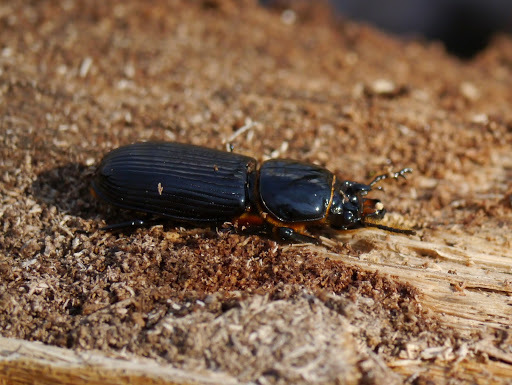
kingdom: Animalia
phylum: Arthropoda
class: Insecta
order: Coleoptera
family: Passalidae
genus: Odontotaenius
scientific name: Odontotaenius disjunctus
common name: Patent leather beetle
